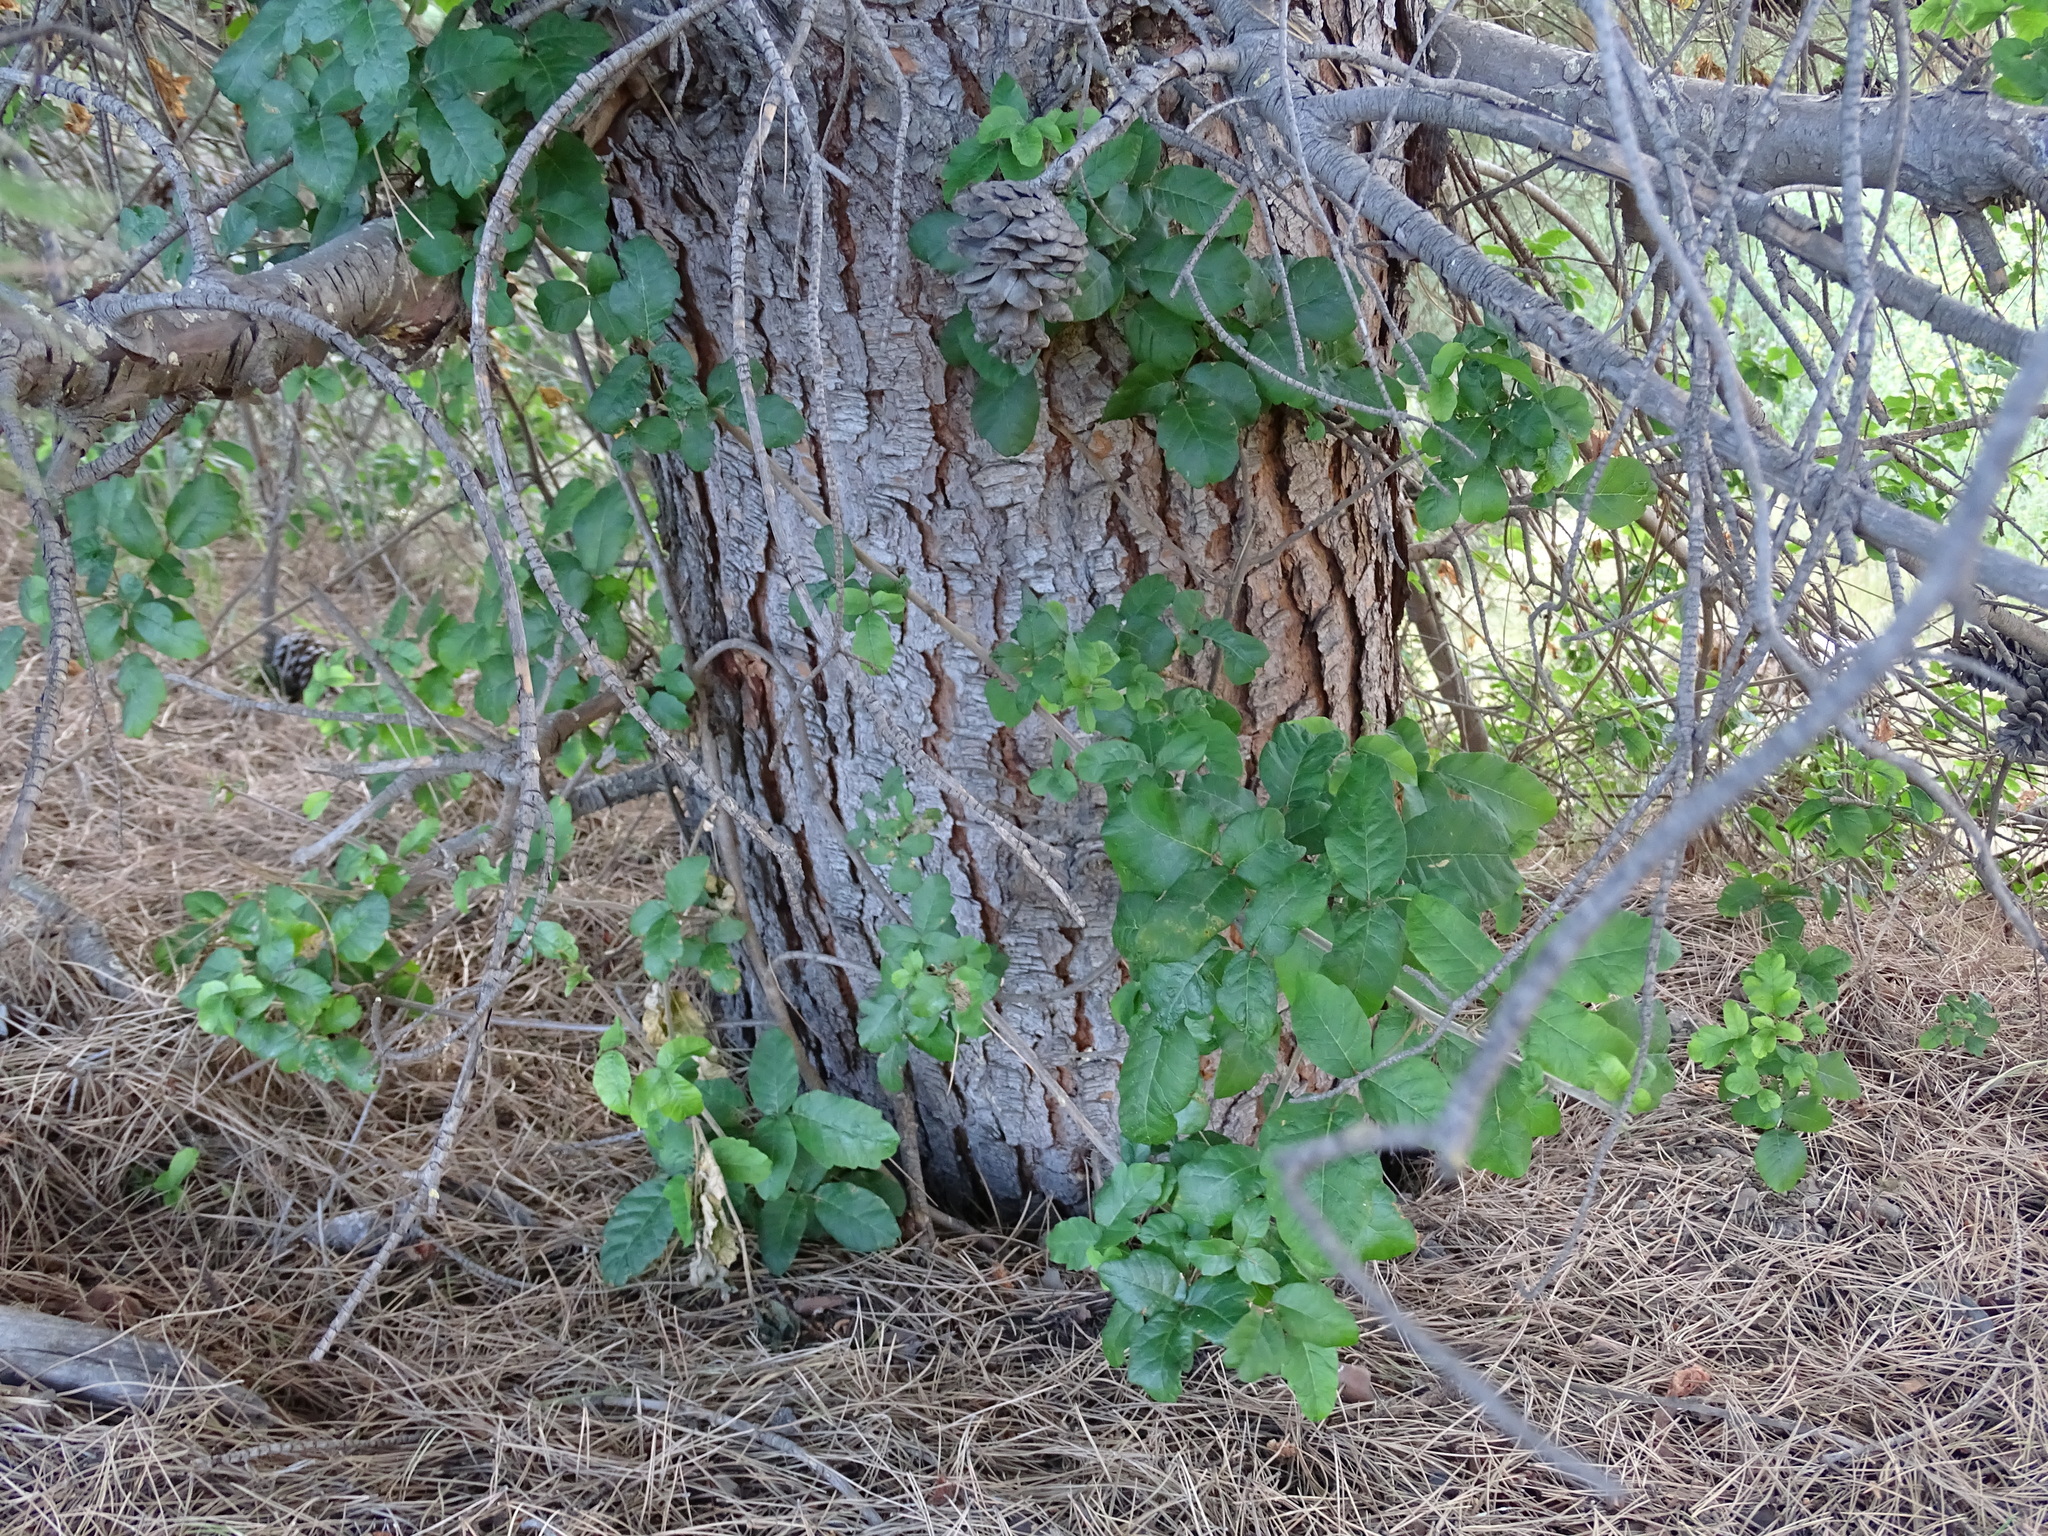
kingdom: Plantae
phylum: Tracheophyta
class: Magnoliopsida
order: Sapindales
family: Anacardiaceae
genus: Toxicodendron
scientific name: Toxicodendron diversilobum
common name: Pacific poison-oak
